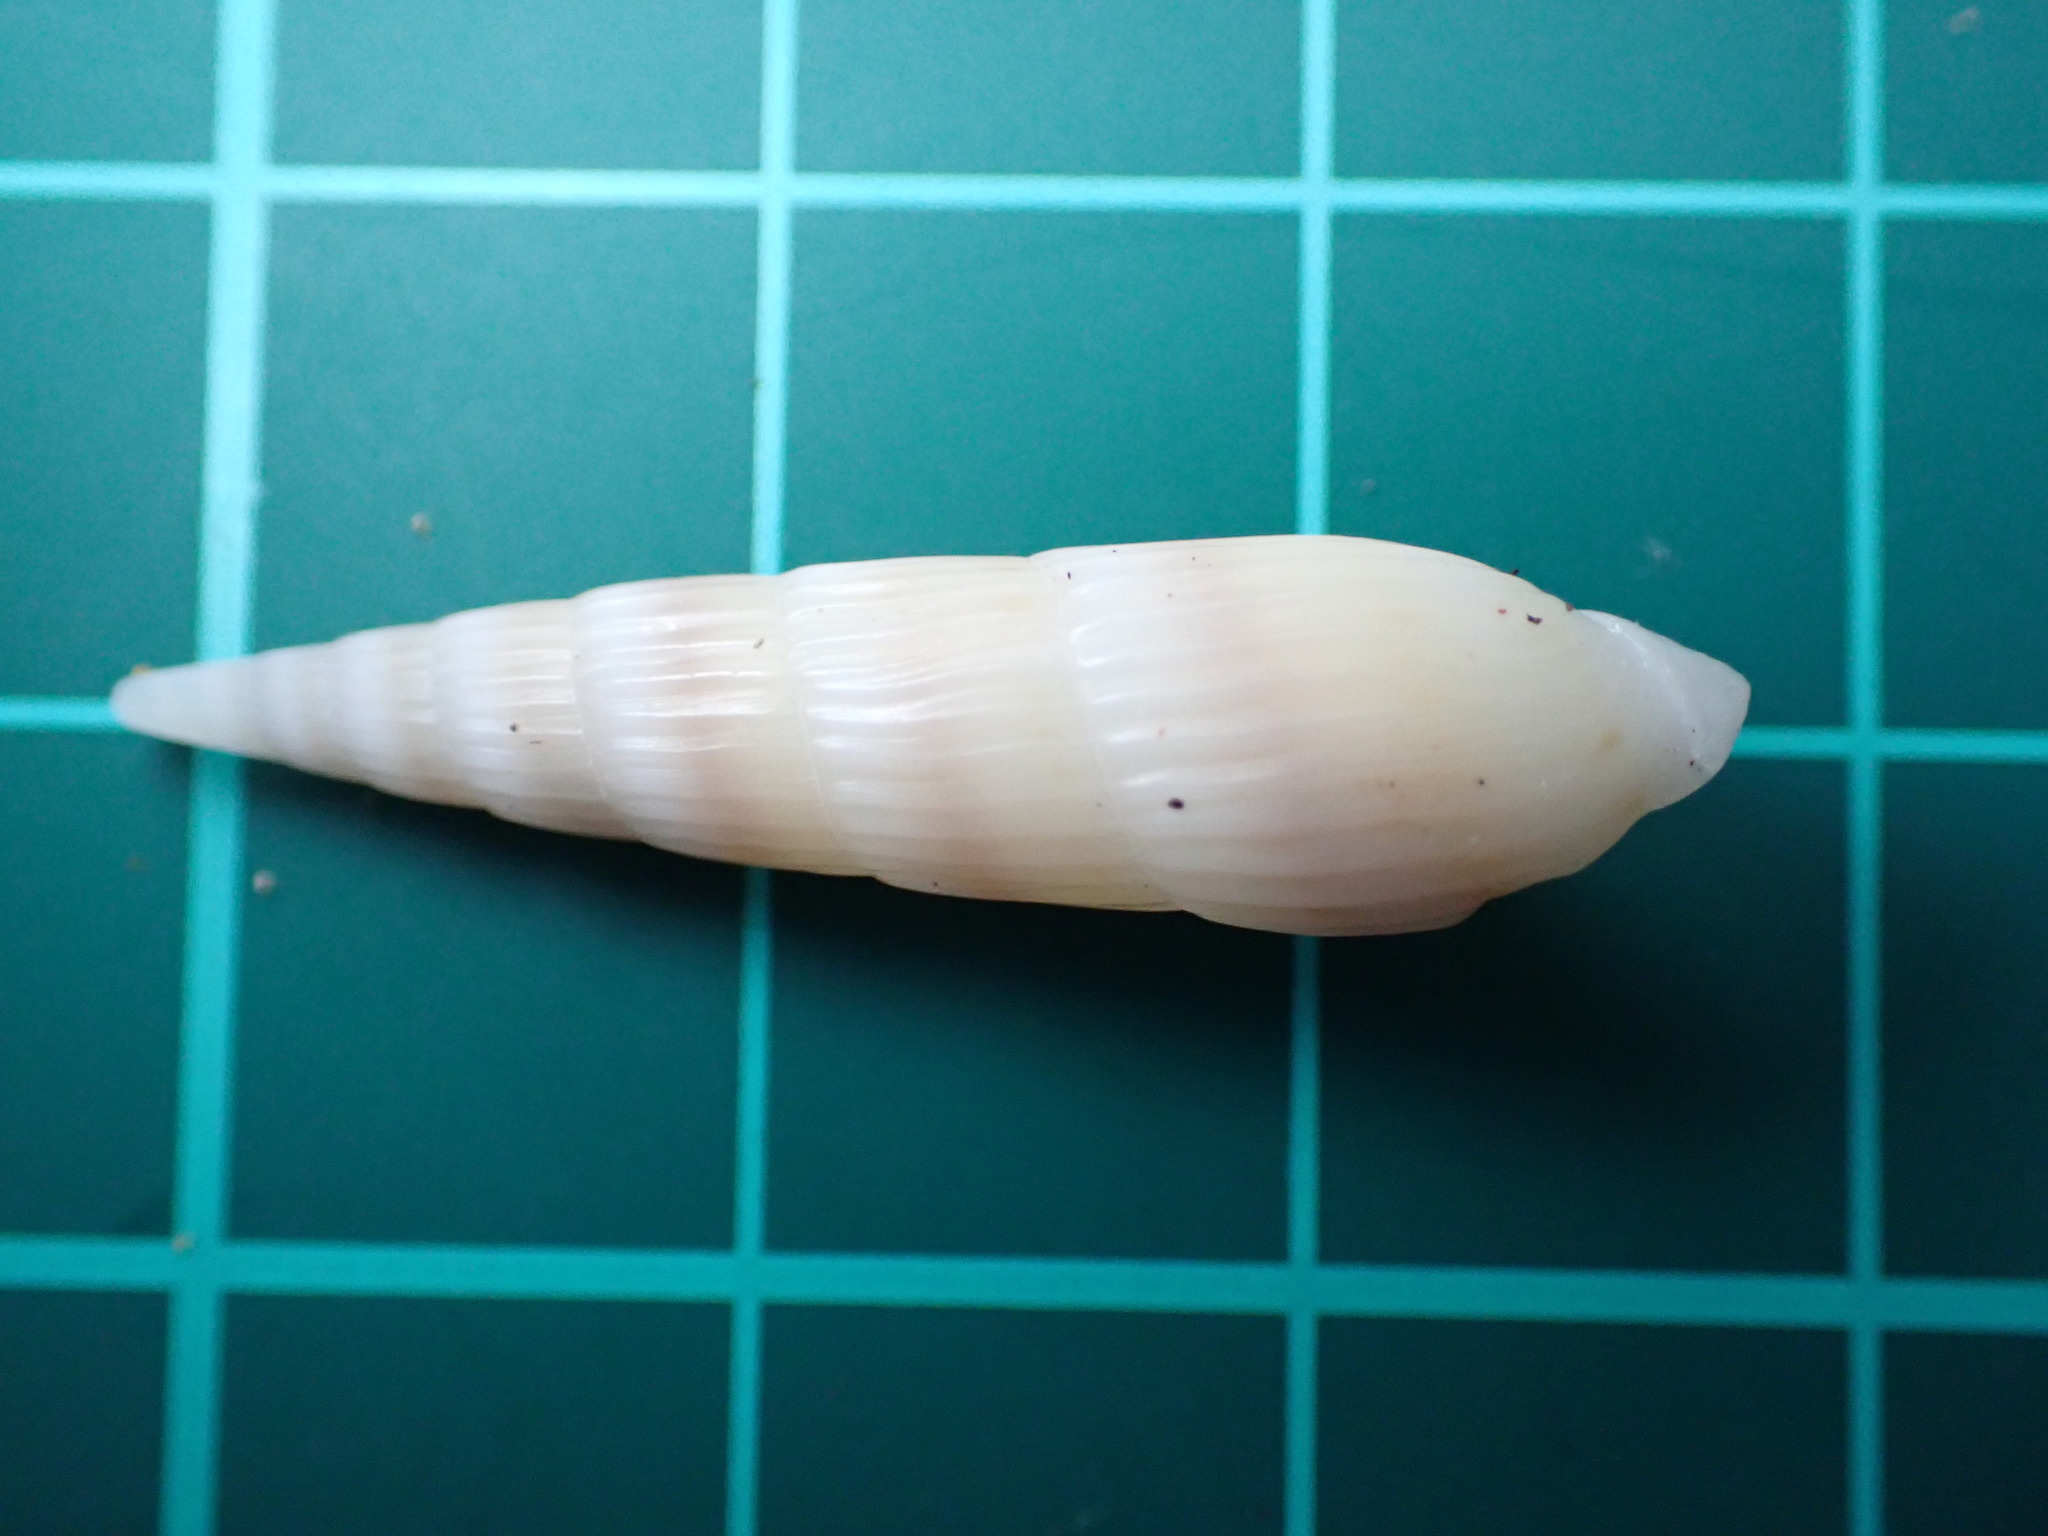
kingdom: Animalia
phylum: Mollusca
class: Gastropoda
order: Neogastropoda
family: Terebridae
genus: Hastula
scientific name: Hastula inconstans
